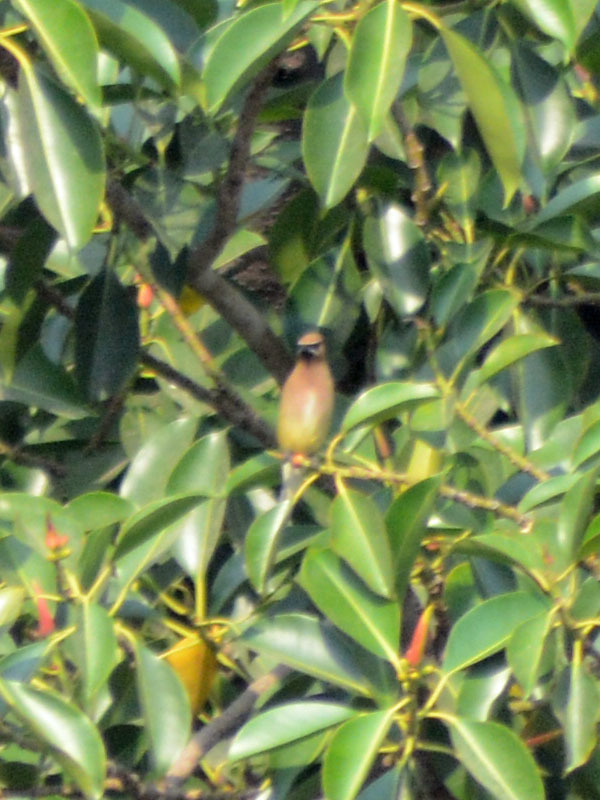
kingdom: Animalia
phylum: Chordata
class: Aves
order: Passeriformes
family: Bombycillidae
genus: Bombycilla
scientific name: Bombycilla cedrorum
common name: Cedar waxwing
